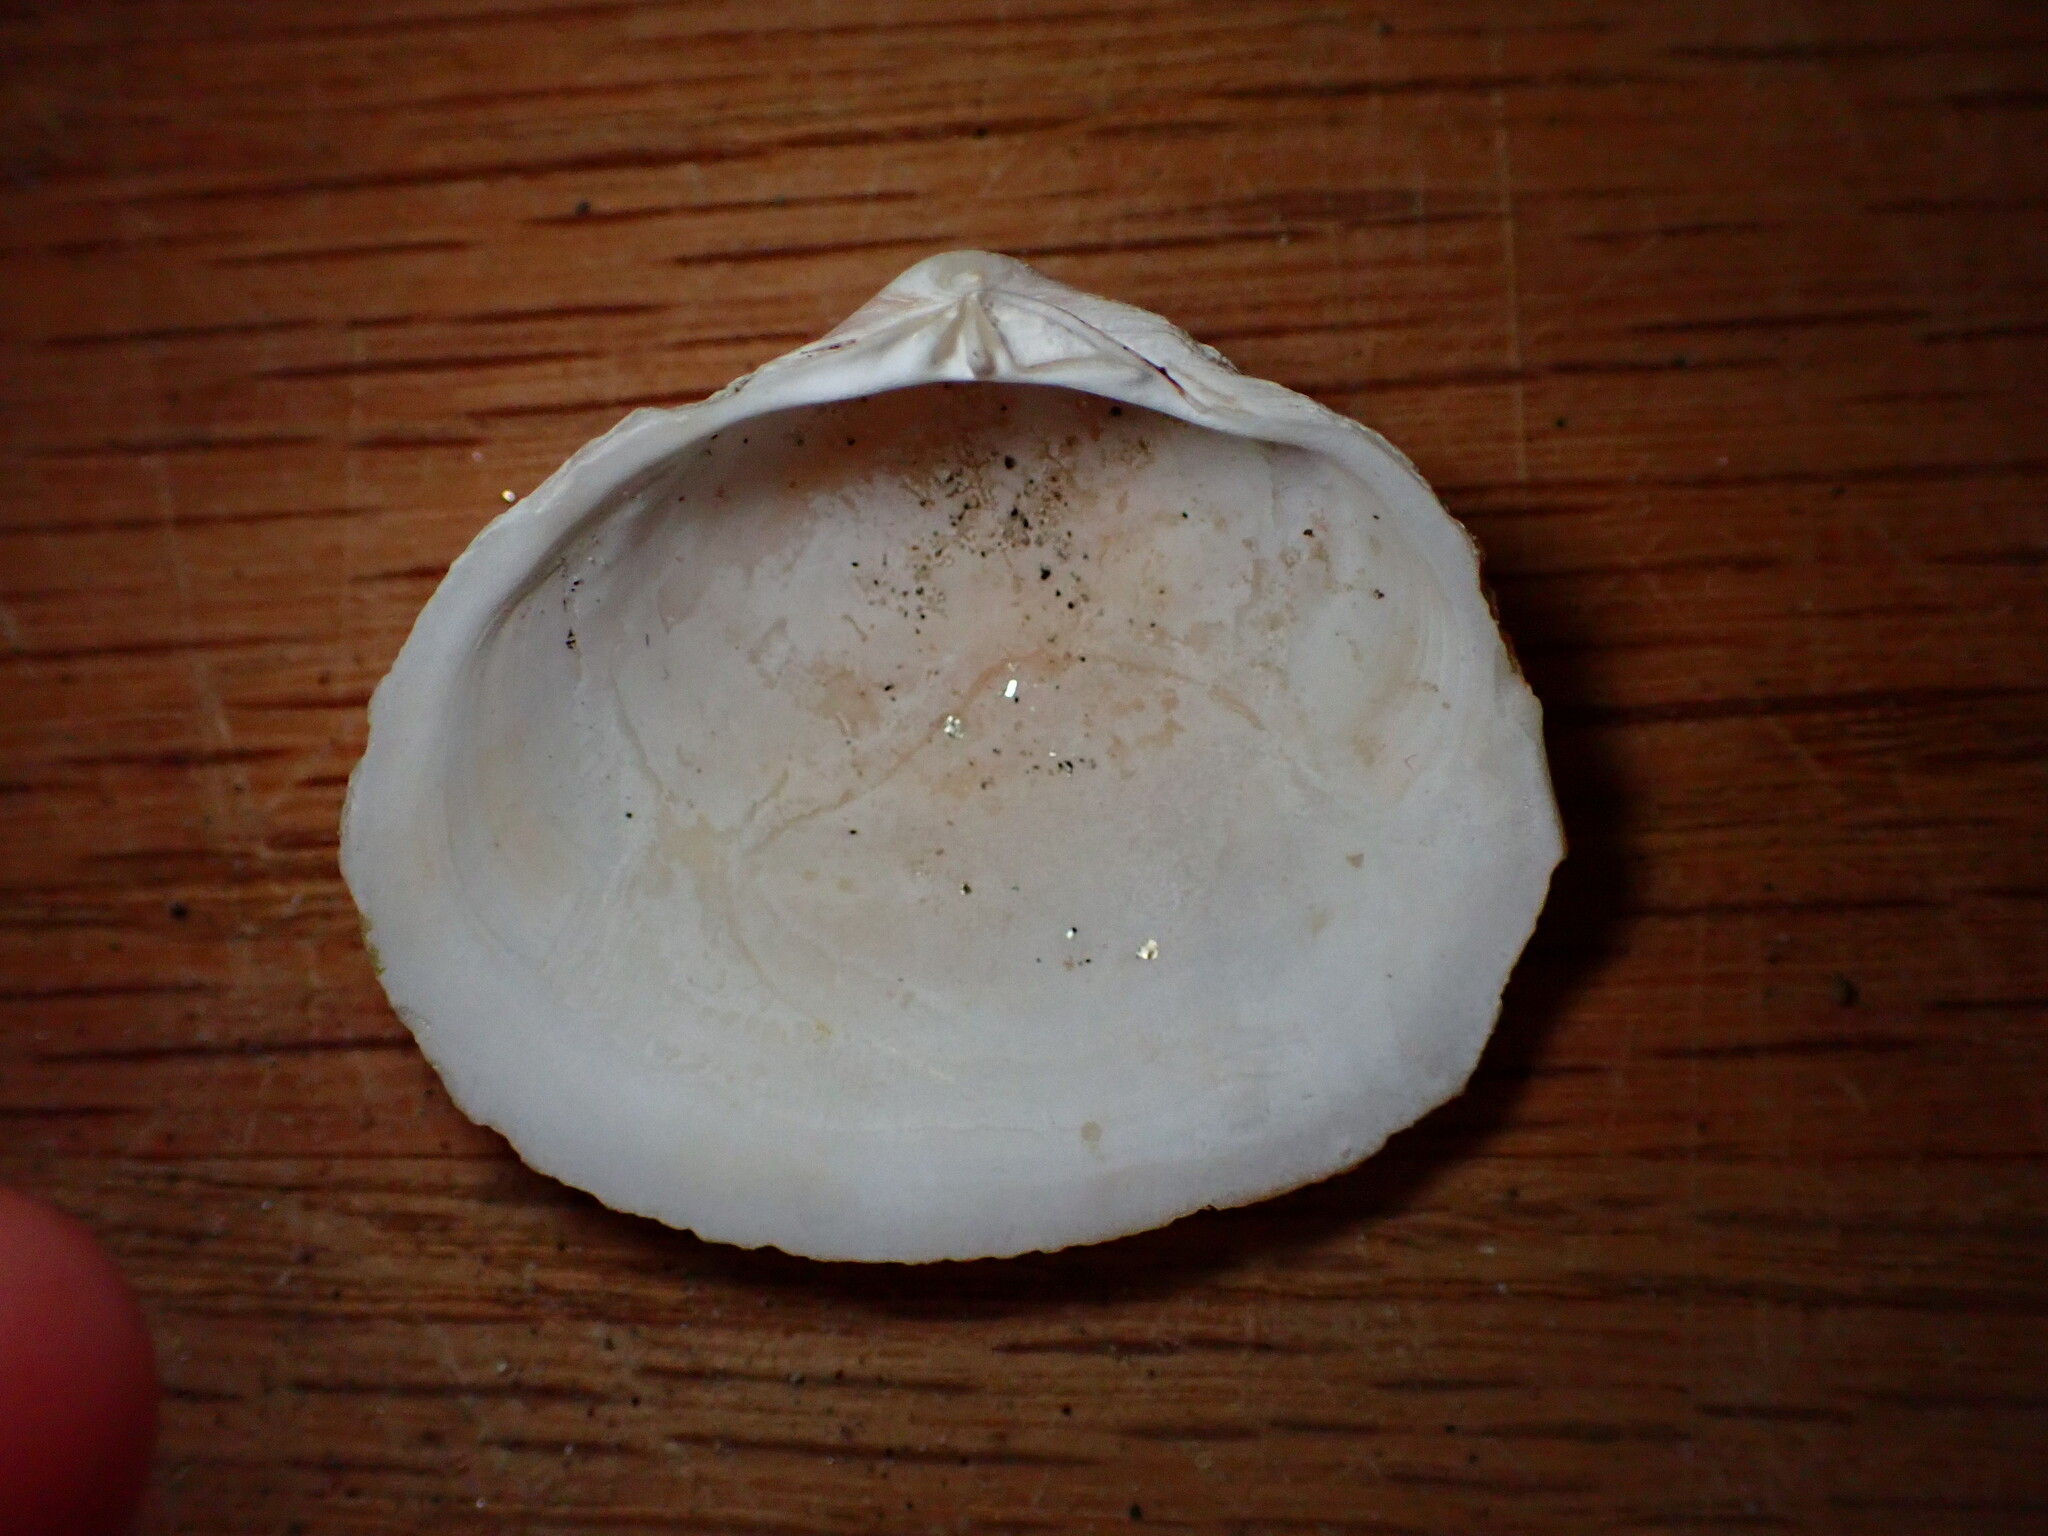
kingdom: Animalia
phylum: Mollusca
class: Bivalvia
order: Cardiida
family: Tellinidae
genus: Leporimetis
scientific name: Leporimetis obesa
